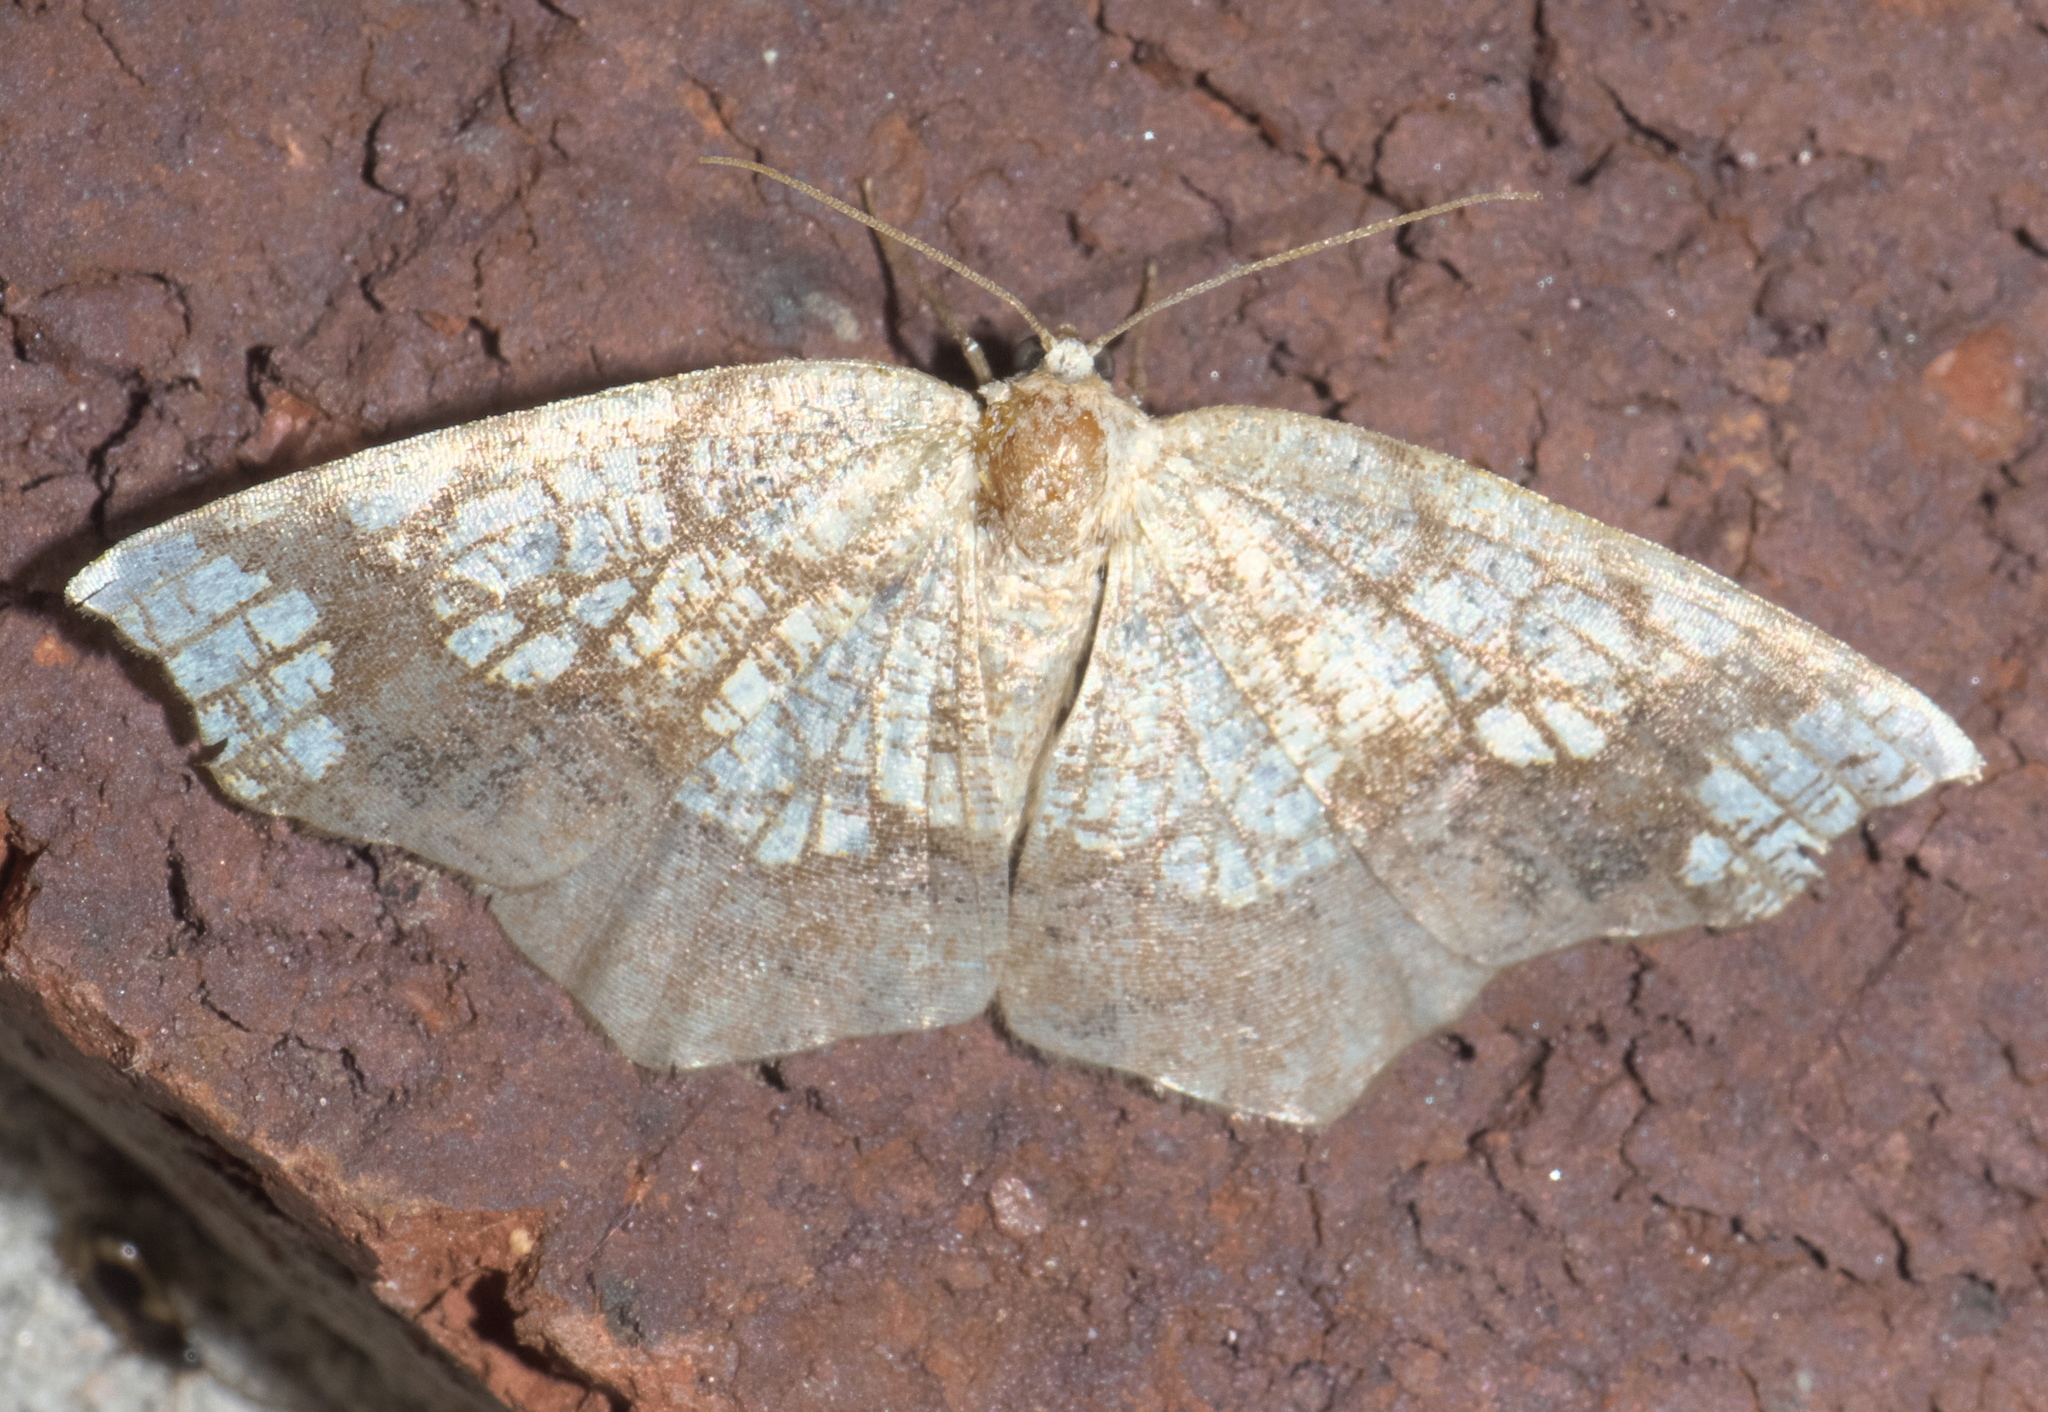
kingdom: Animalia
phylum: Arthropoda
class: Insecta
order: Lepidoptera
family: Geometridae
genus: Nematocampa
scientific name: Nematocampa resistaria
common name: Horned spanworm moth
